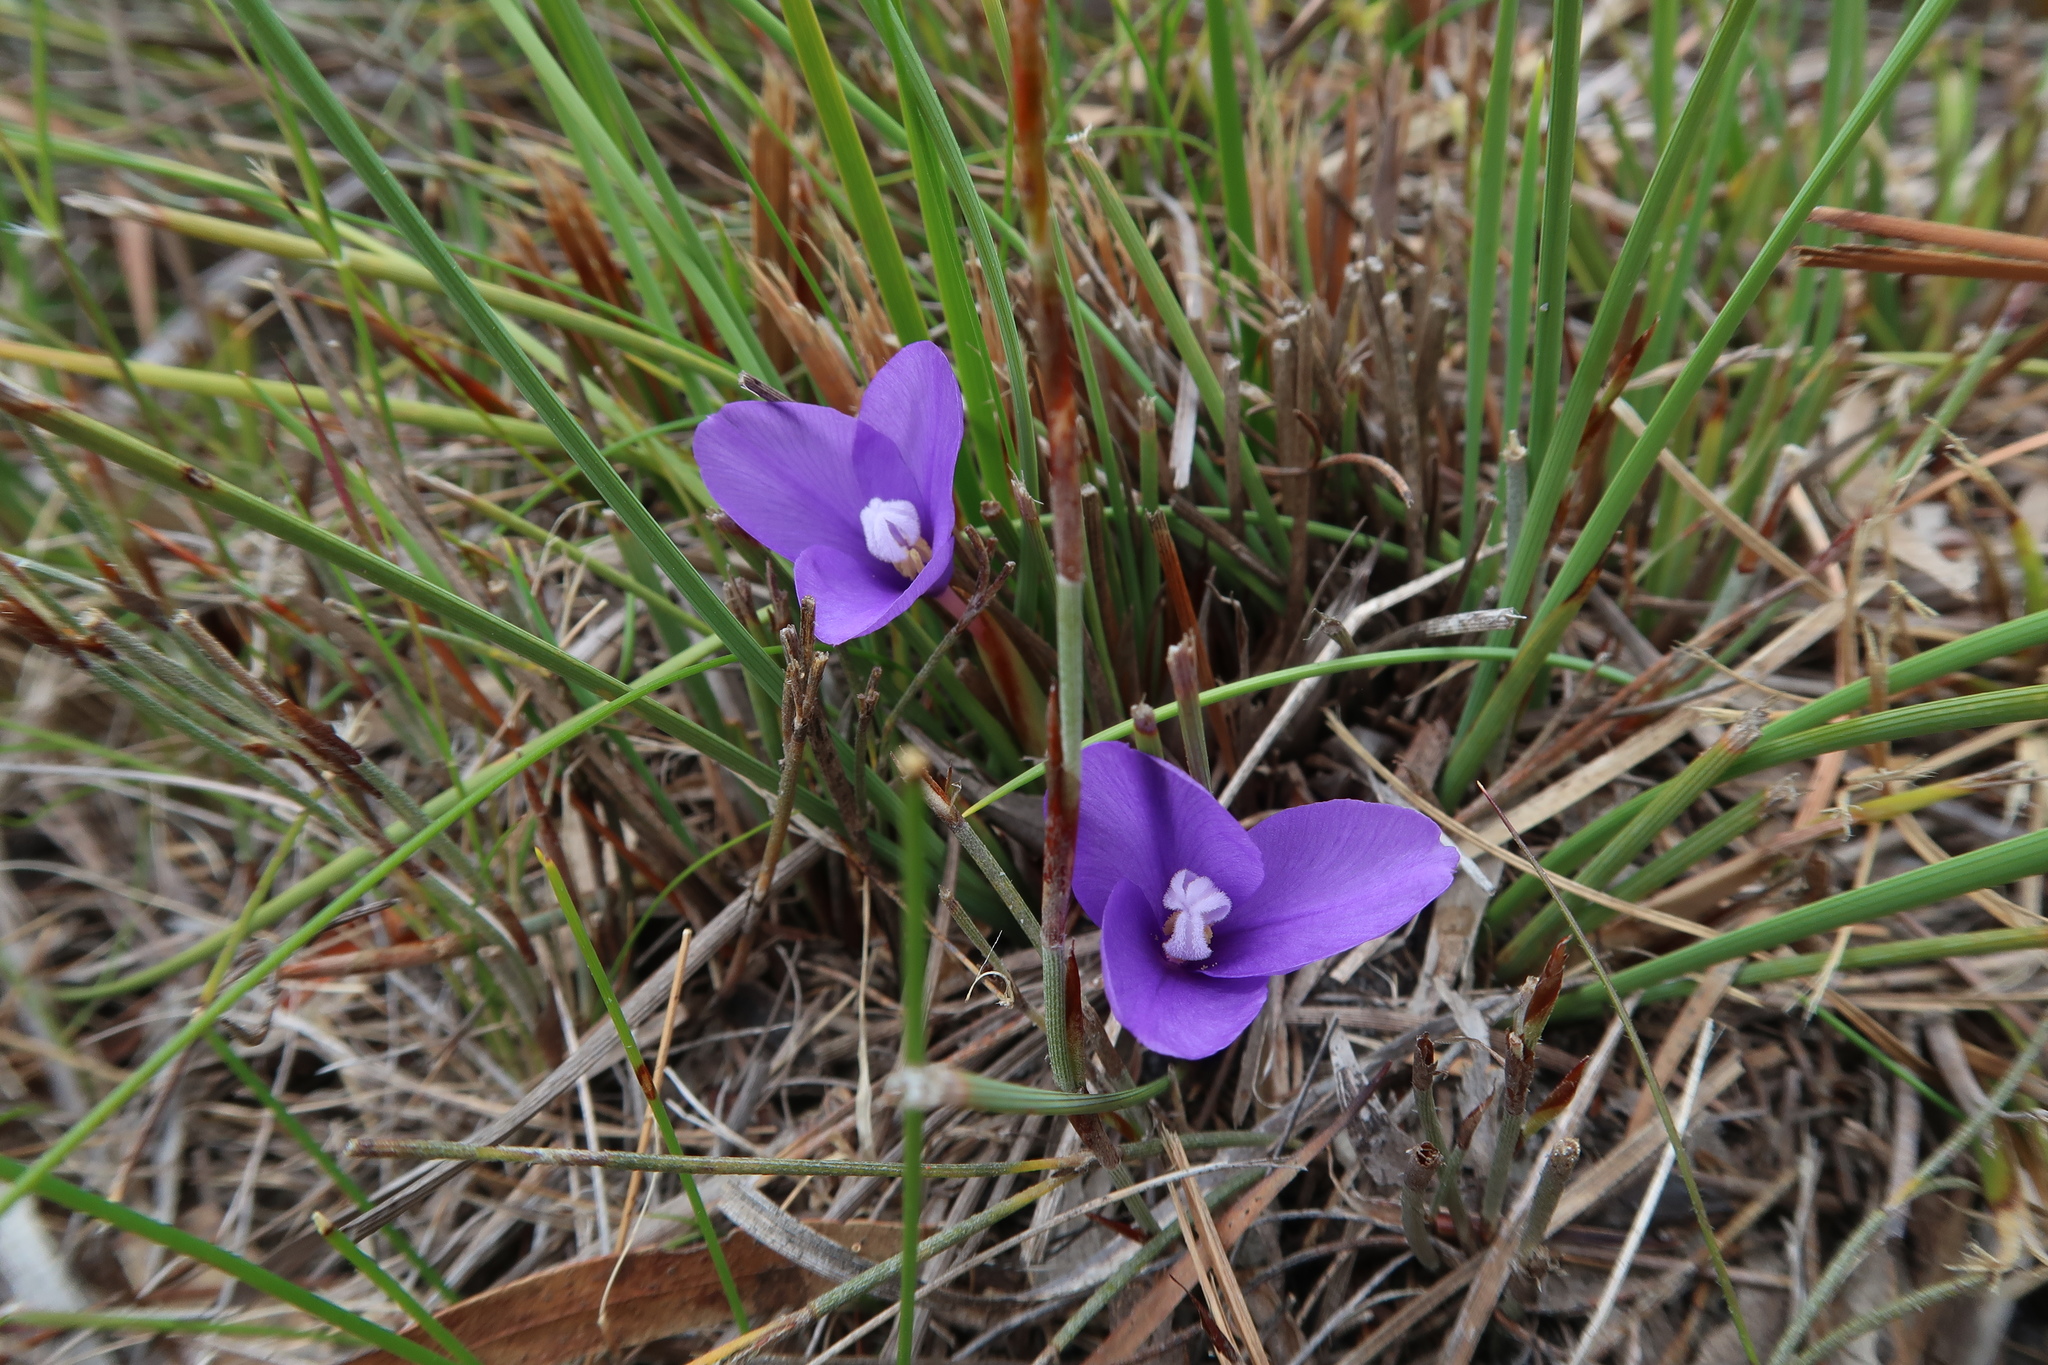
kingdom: Plantae
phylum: Tracheophyta
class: Liliopsida
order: Asparagales
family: Iridaceae
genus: Patersonia
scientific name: Patersonia fragilis
